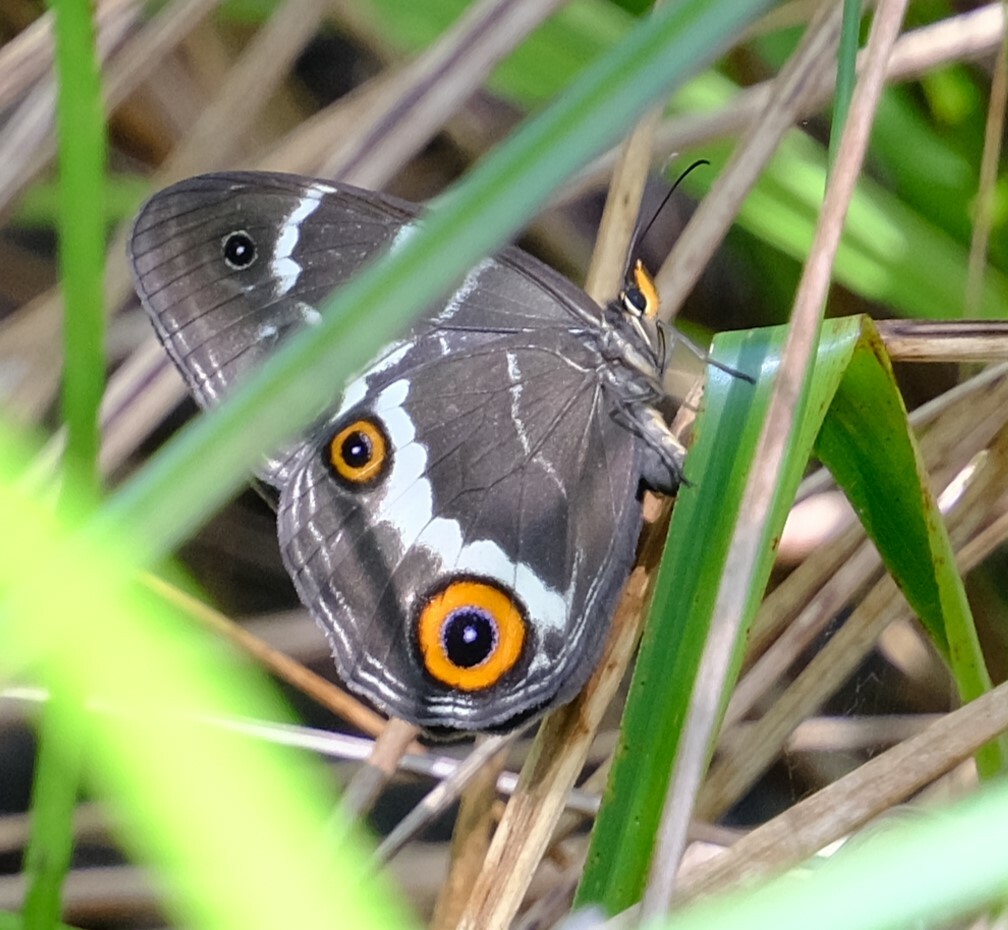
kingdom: Animalia
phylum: Arthropoda
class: Insecta
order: Lepidoptera
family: Nymphalidae
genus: Tisiphone
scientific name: Tisiphone abeona
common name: Swordgrass brown
